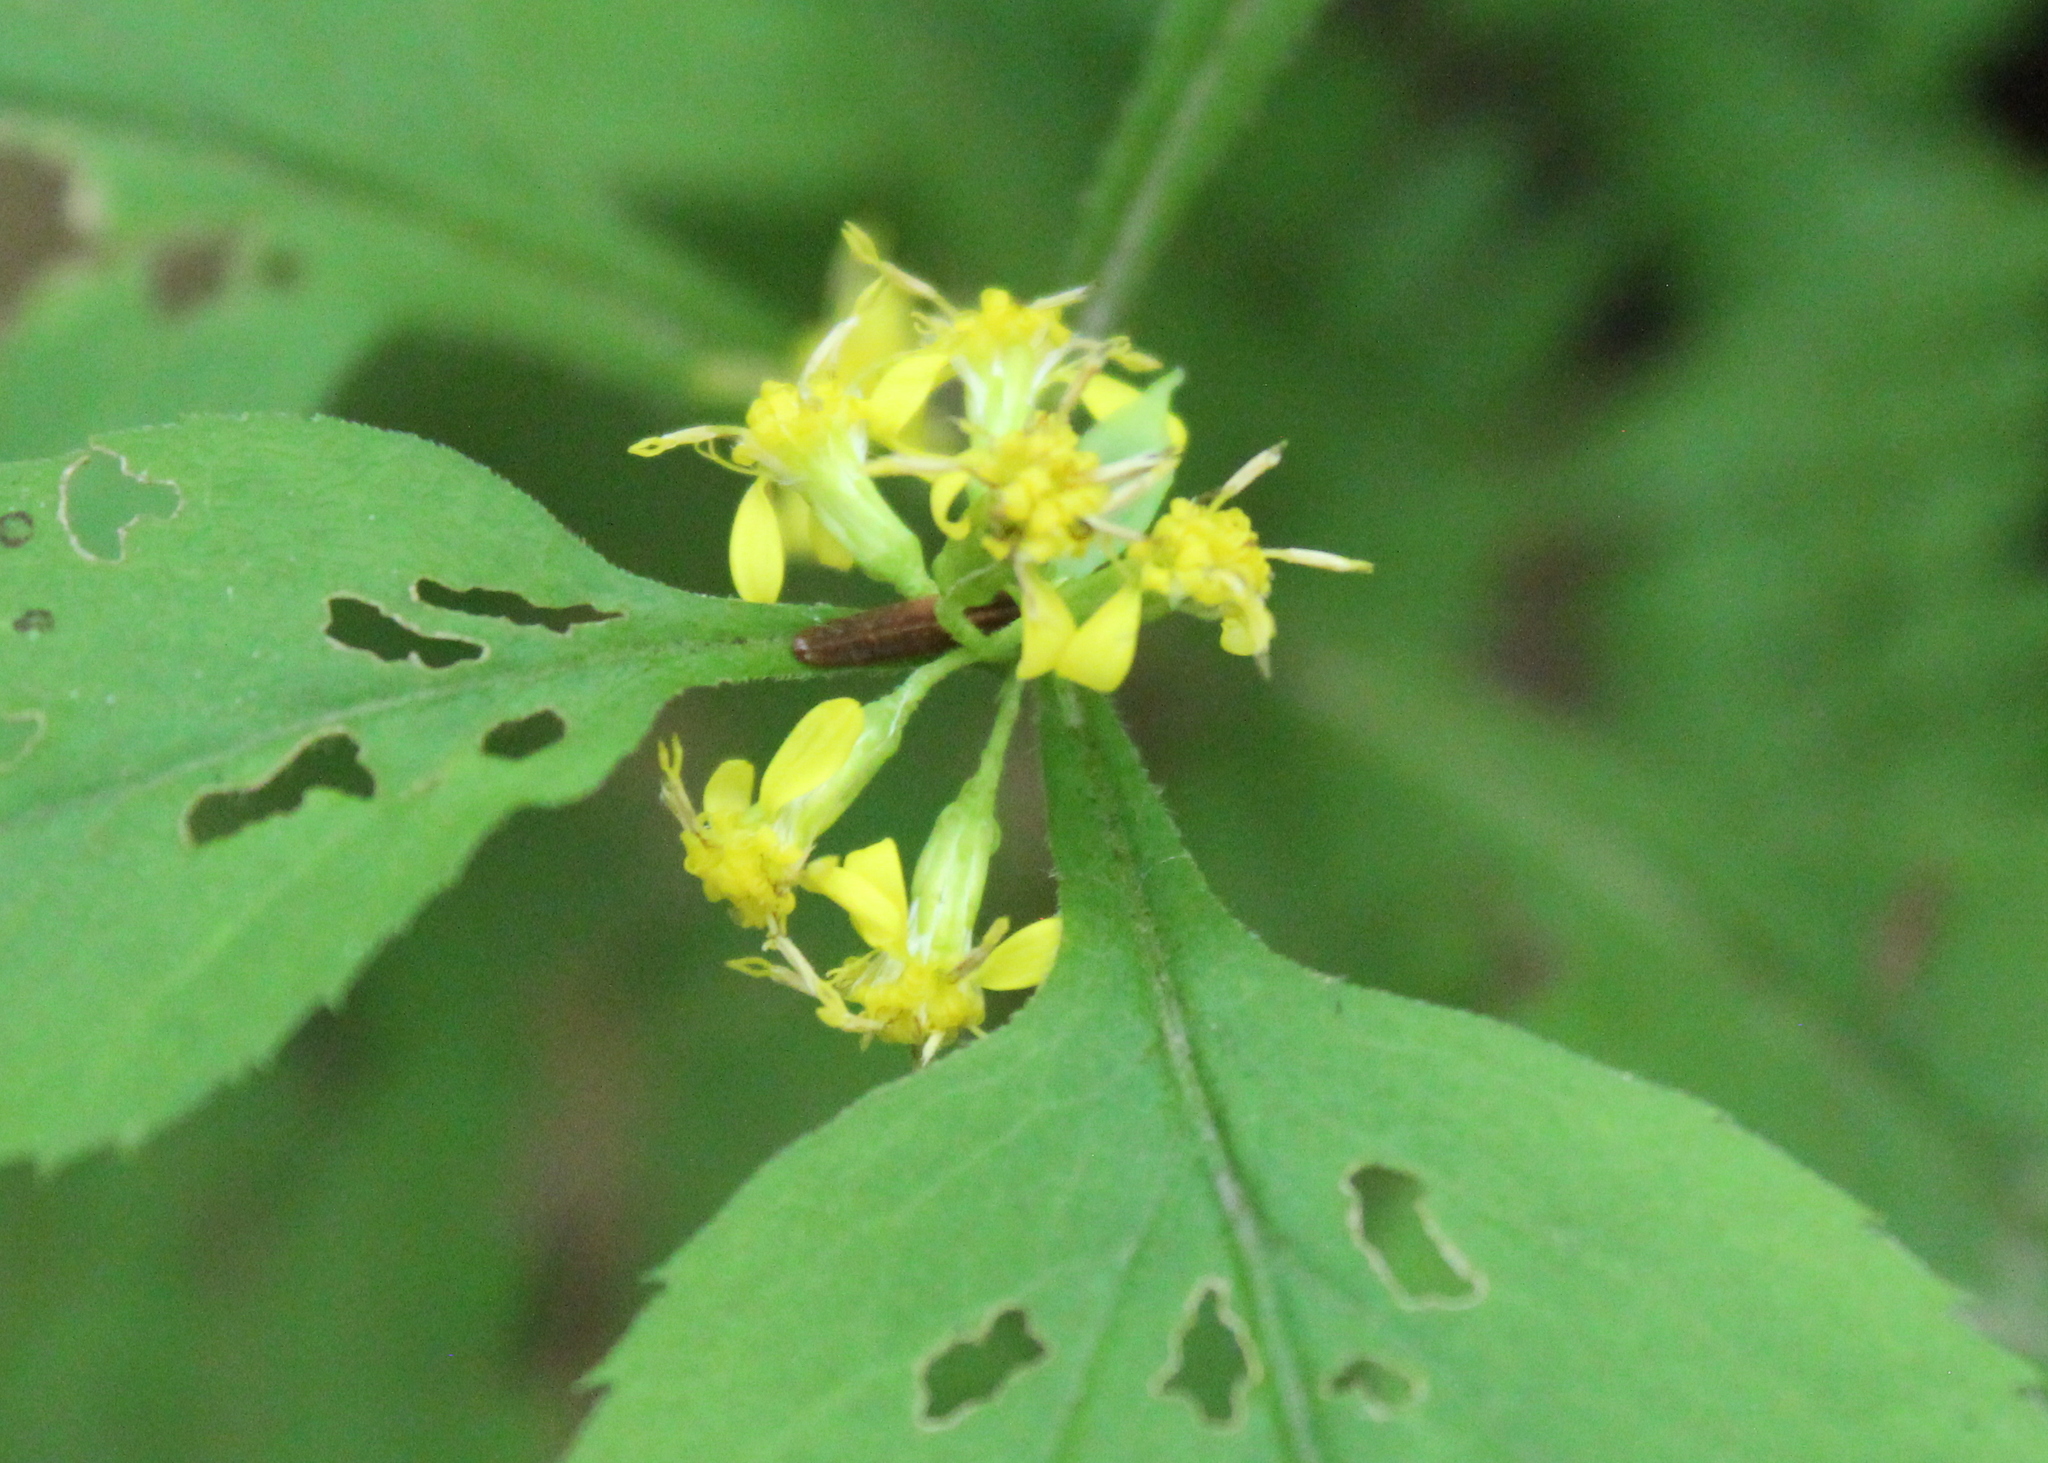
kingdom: Plantae
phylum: Tracheophyta
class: Magnoliopsida
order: Asterales
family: Asteraceae
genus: Solidago
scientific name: Solidago flexicaulis
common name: Zig-zag goldenrod
